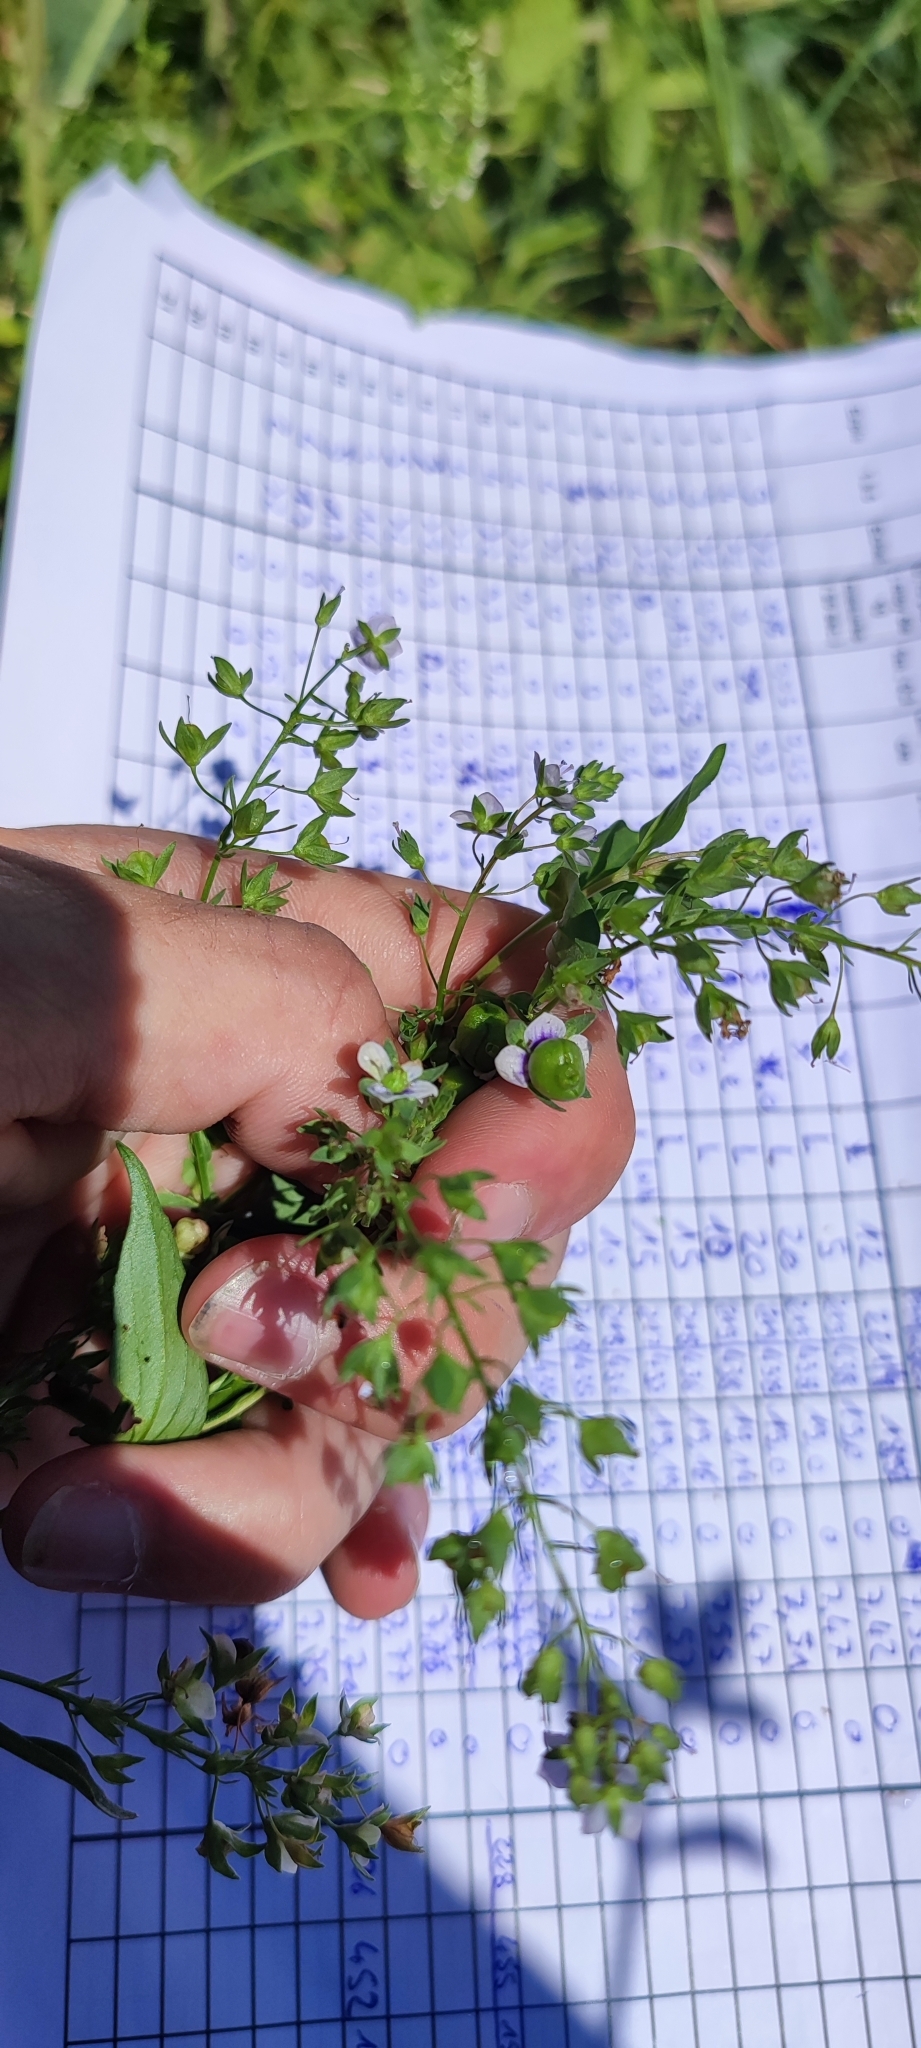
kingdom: Plantae
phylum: Tracheophyta
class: Magnoliopsida
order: Lamiales
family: Plantaginaceae
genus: Veronica
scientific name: Veronica anagallis-aquatica
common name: Water speedwell
